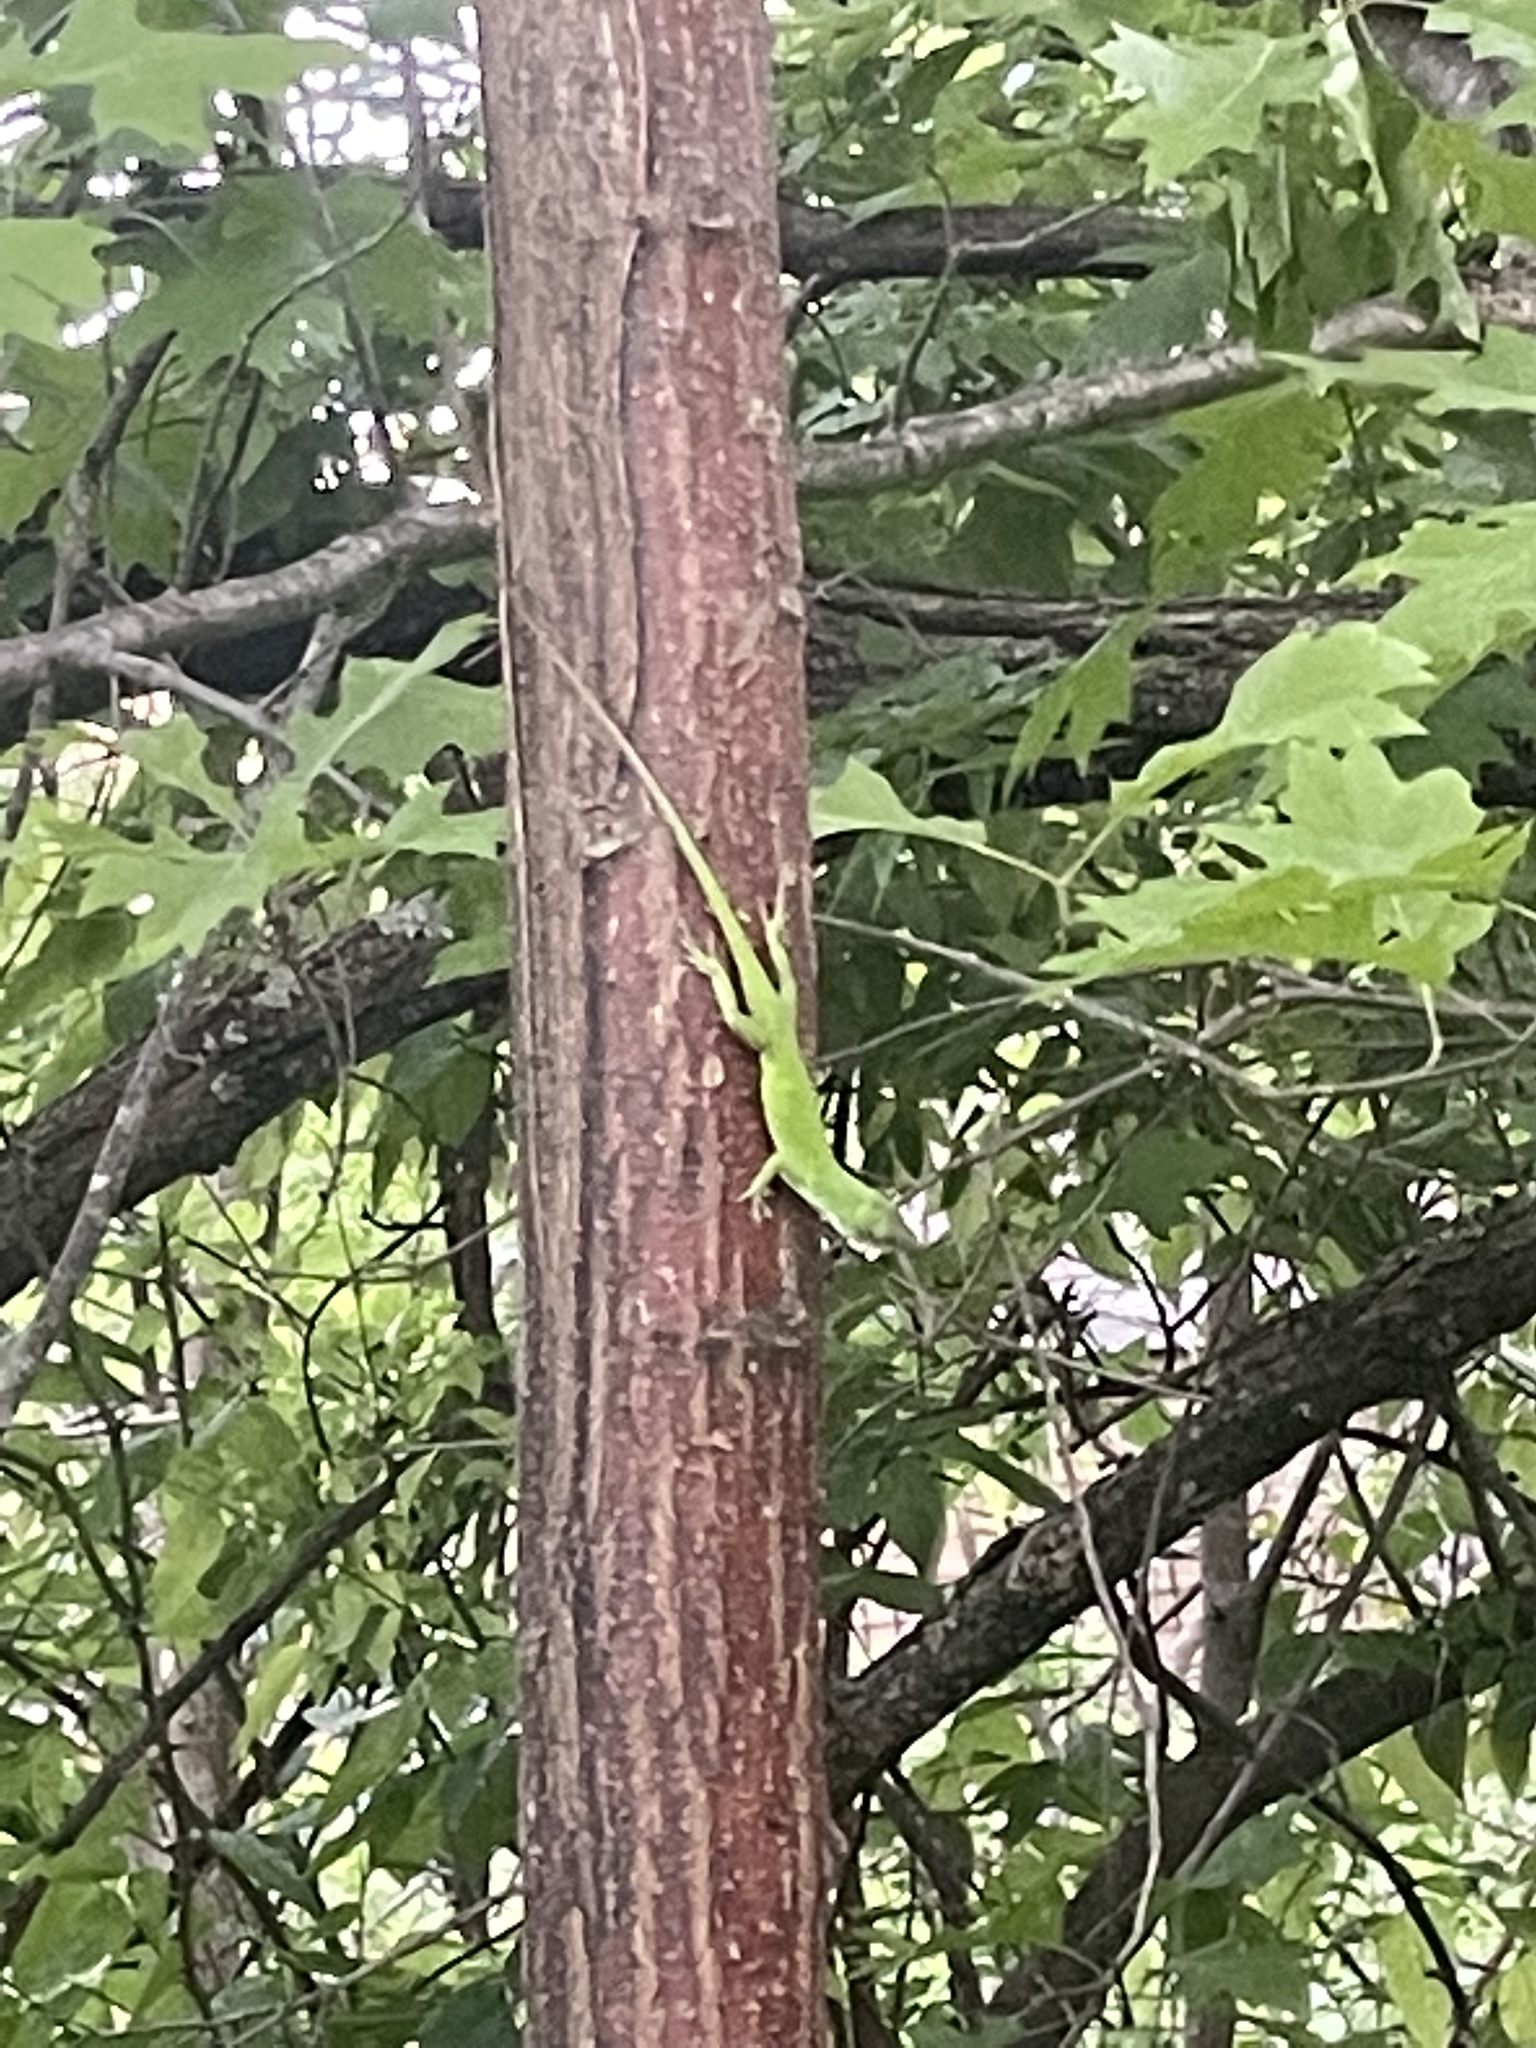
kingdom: Animalia
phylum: Chordata
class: Squamata
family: Dactyloidae
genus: Anolis
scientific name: Anolis carolinensis
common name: Green anole
